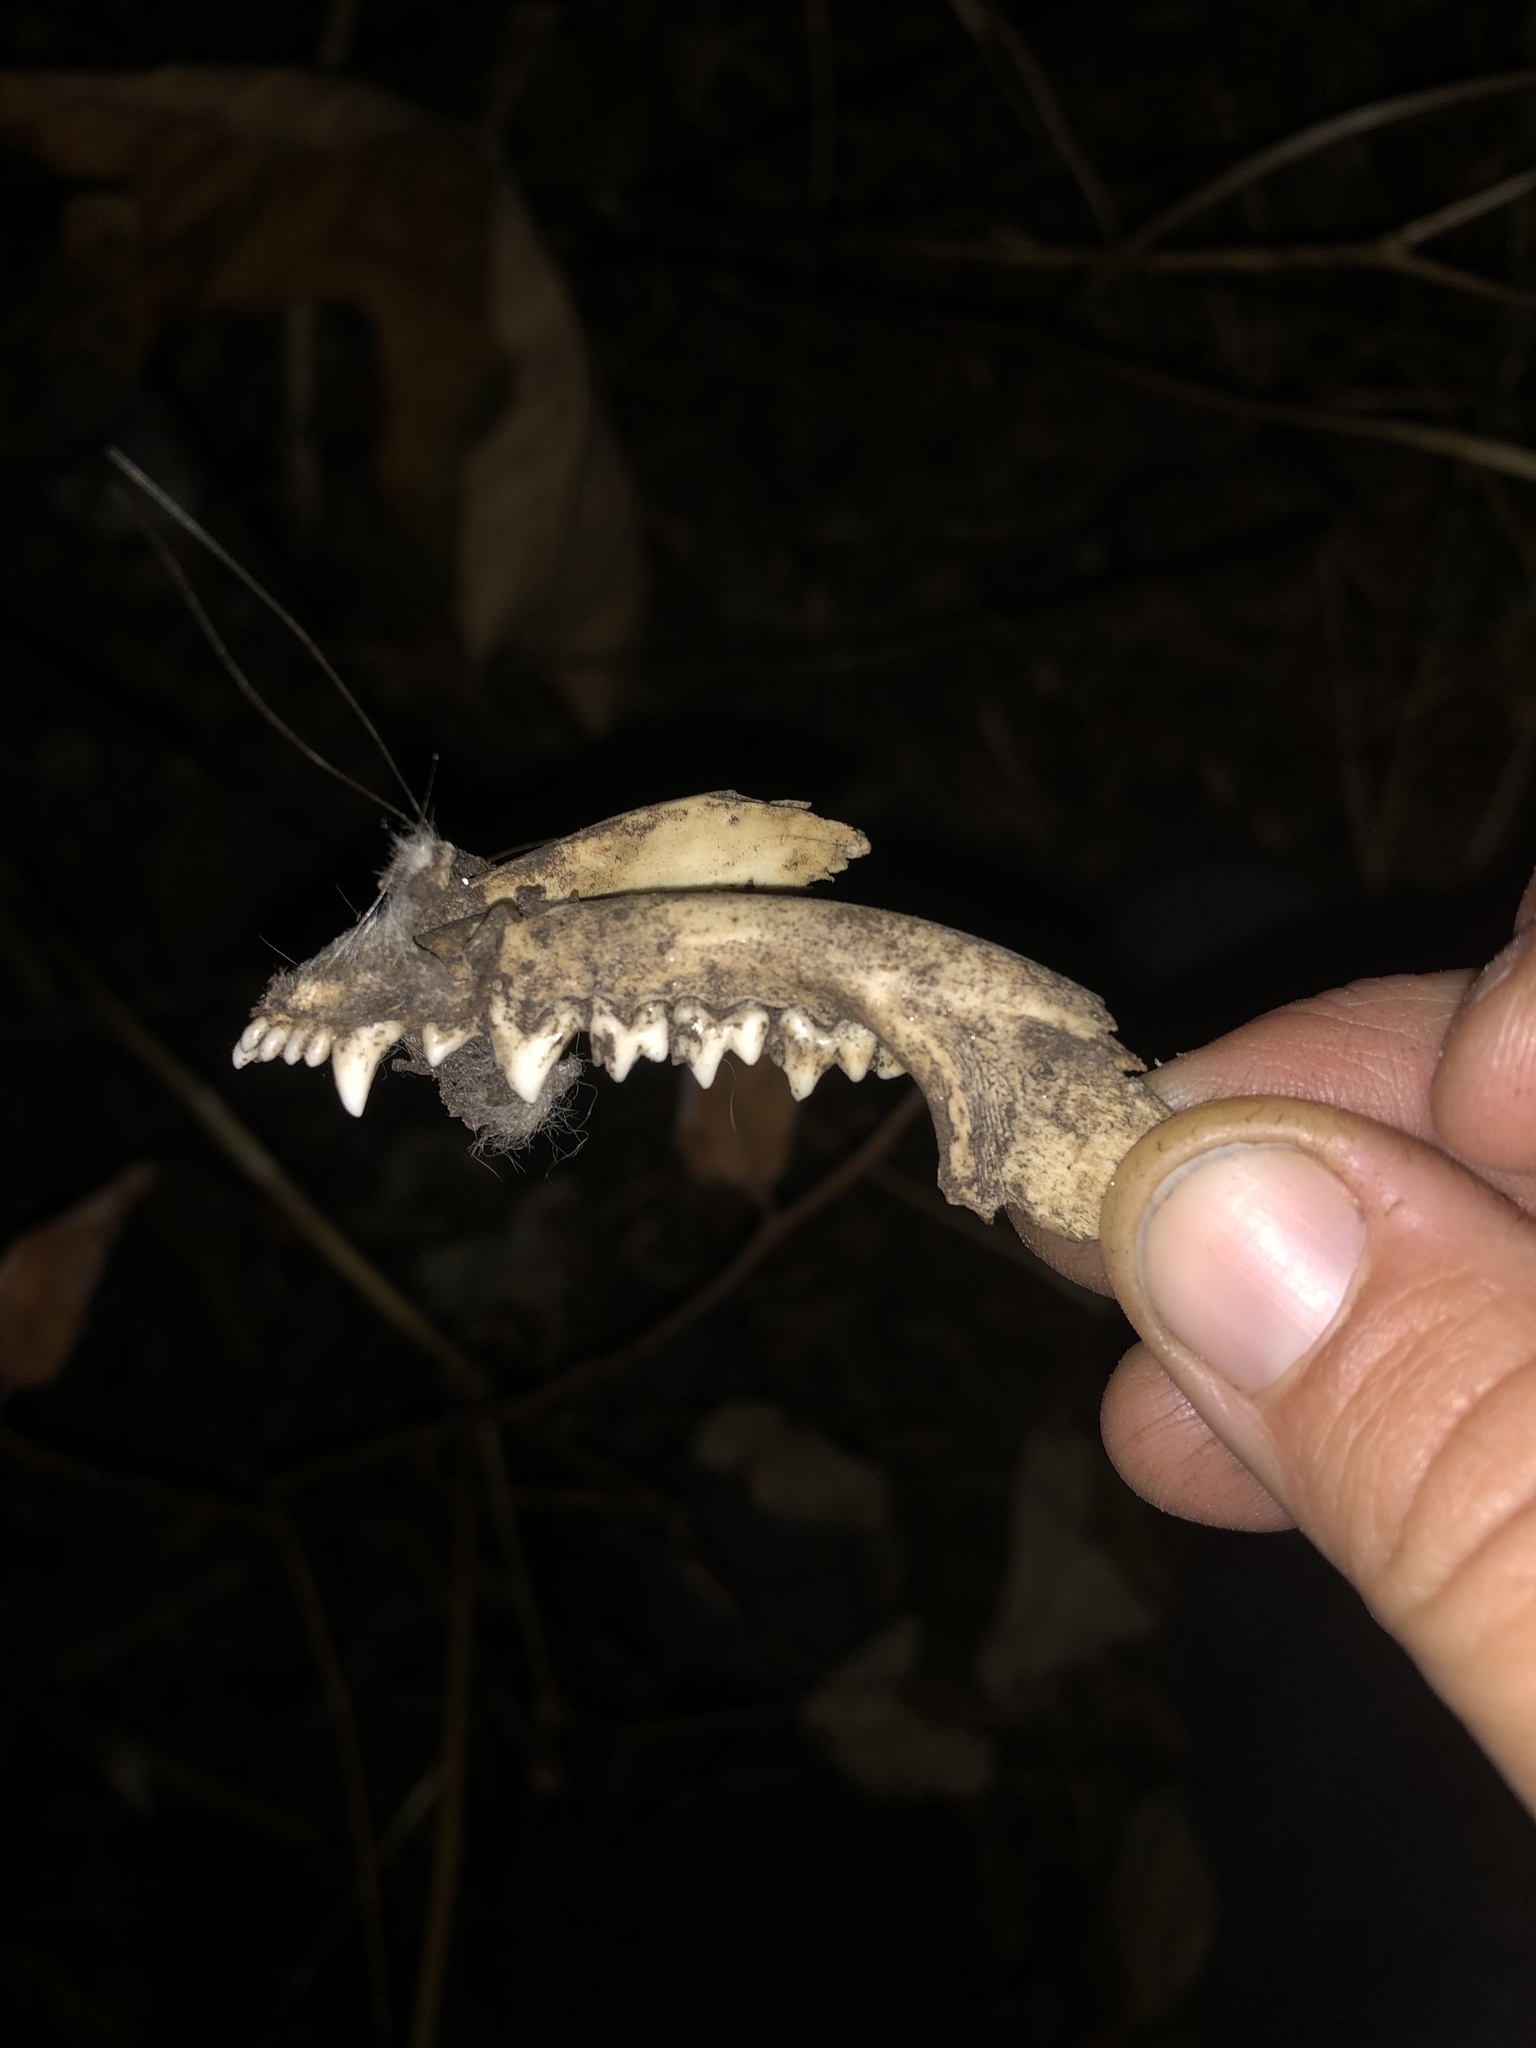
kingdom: Animalia
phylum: Chordata
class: Mammalia
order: Didelphimorphia
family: Didelphidae
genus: Didelphis
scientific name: Didelphis virginiana
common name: Virginia opossum
